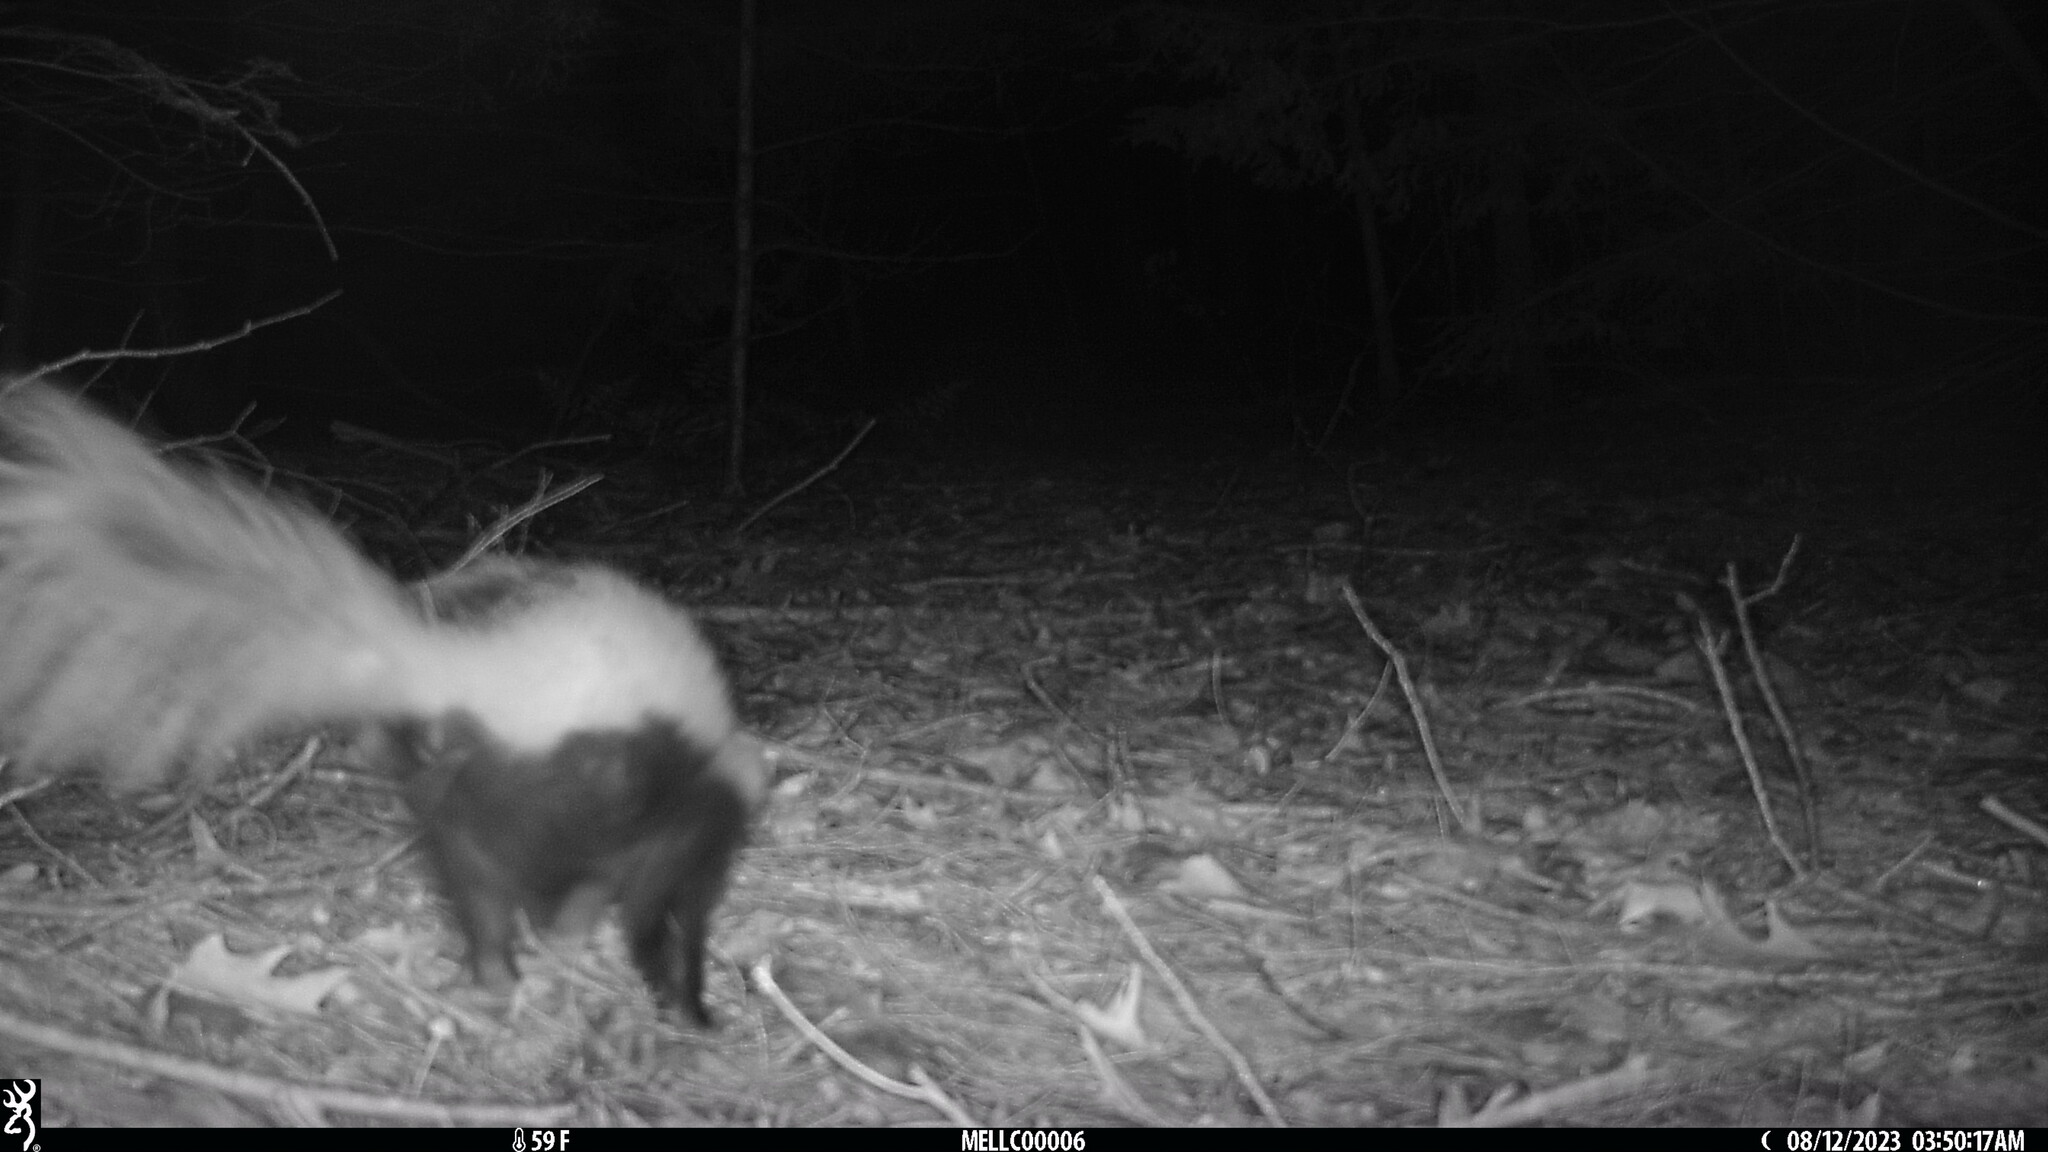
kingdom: Animalia
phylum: Chordata
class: Mammalia
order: Carnivora
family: Mephitidae
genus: Mephitis
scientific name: Mephitis mephitis
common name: Striped skunk
